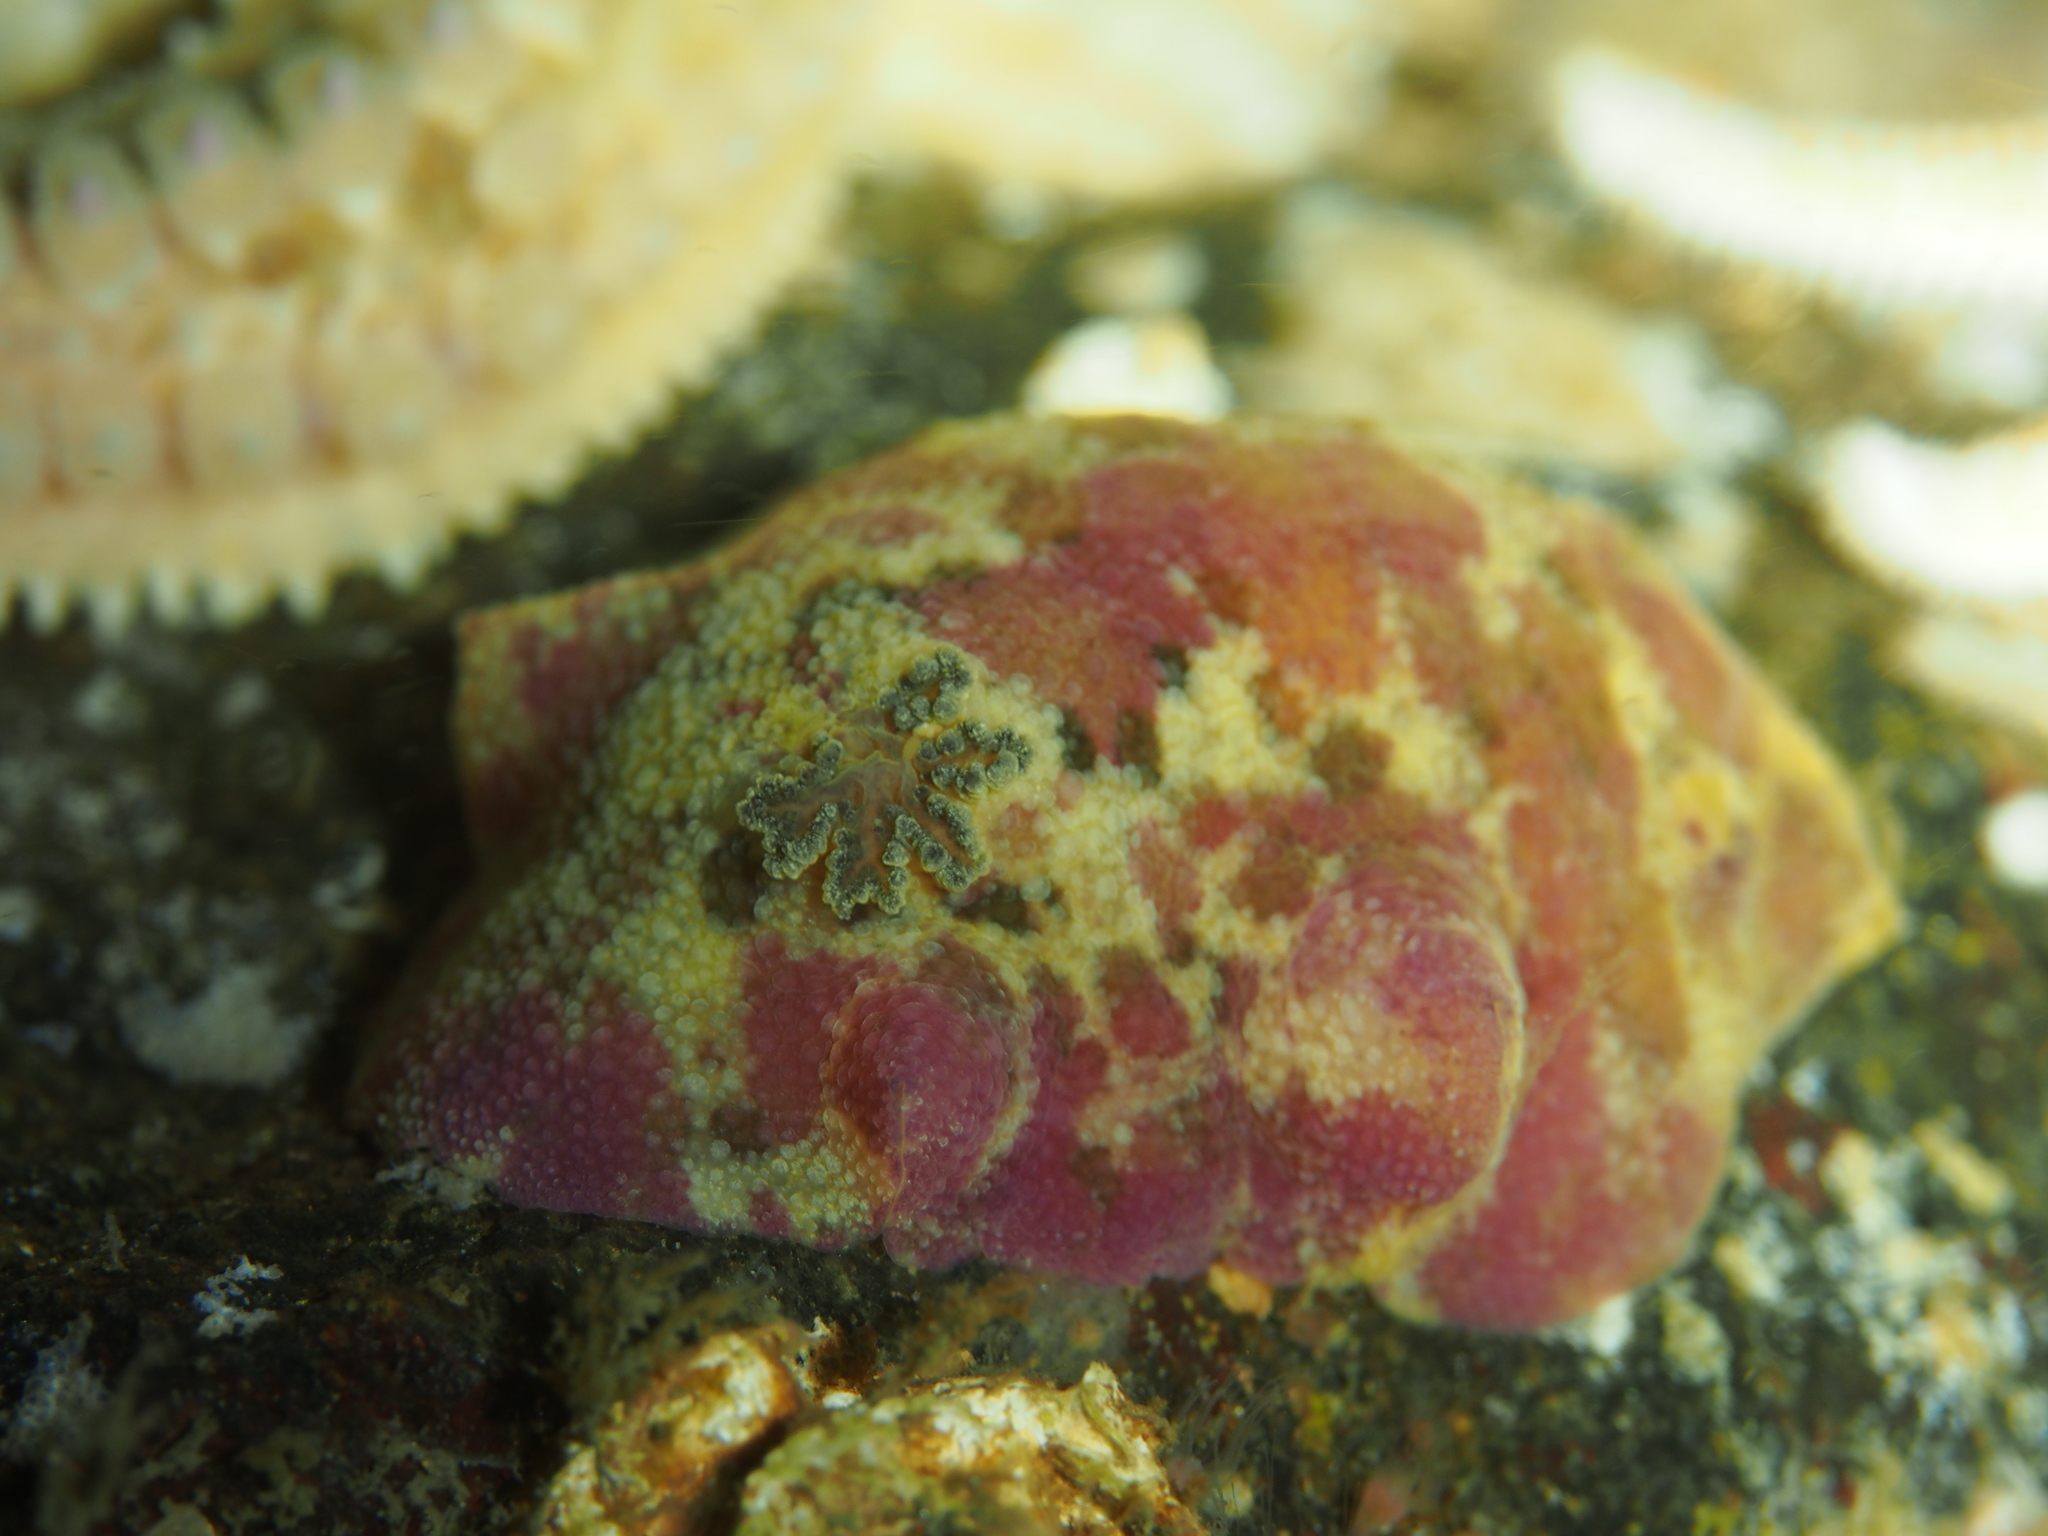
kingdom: Animalia
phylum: Mollusca
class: Gastropoda
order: Nudibranchia
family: Dorididae
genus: Doris
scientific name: Doris pseudoargus
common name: Sea lemon
